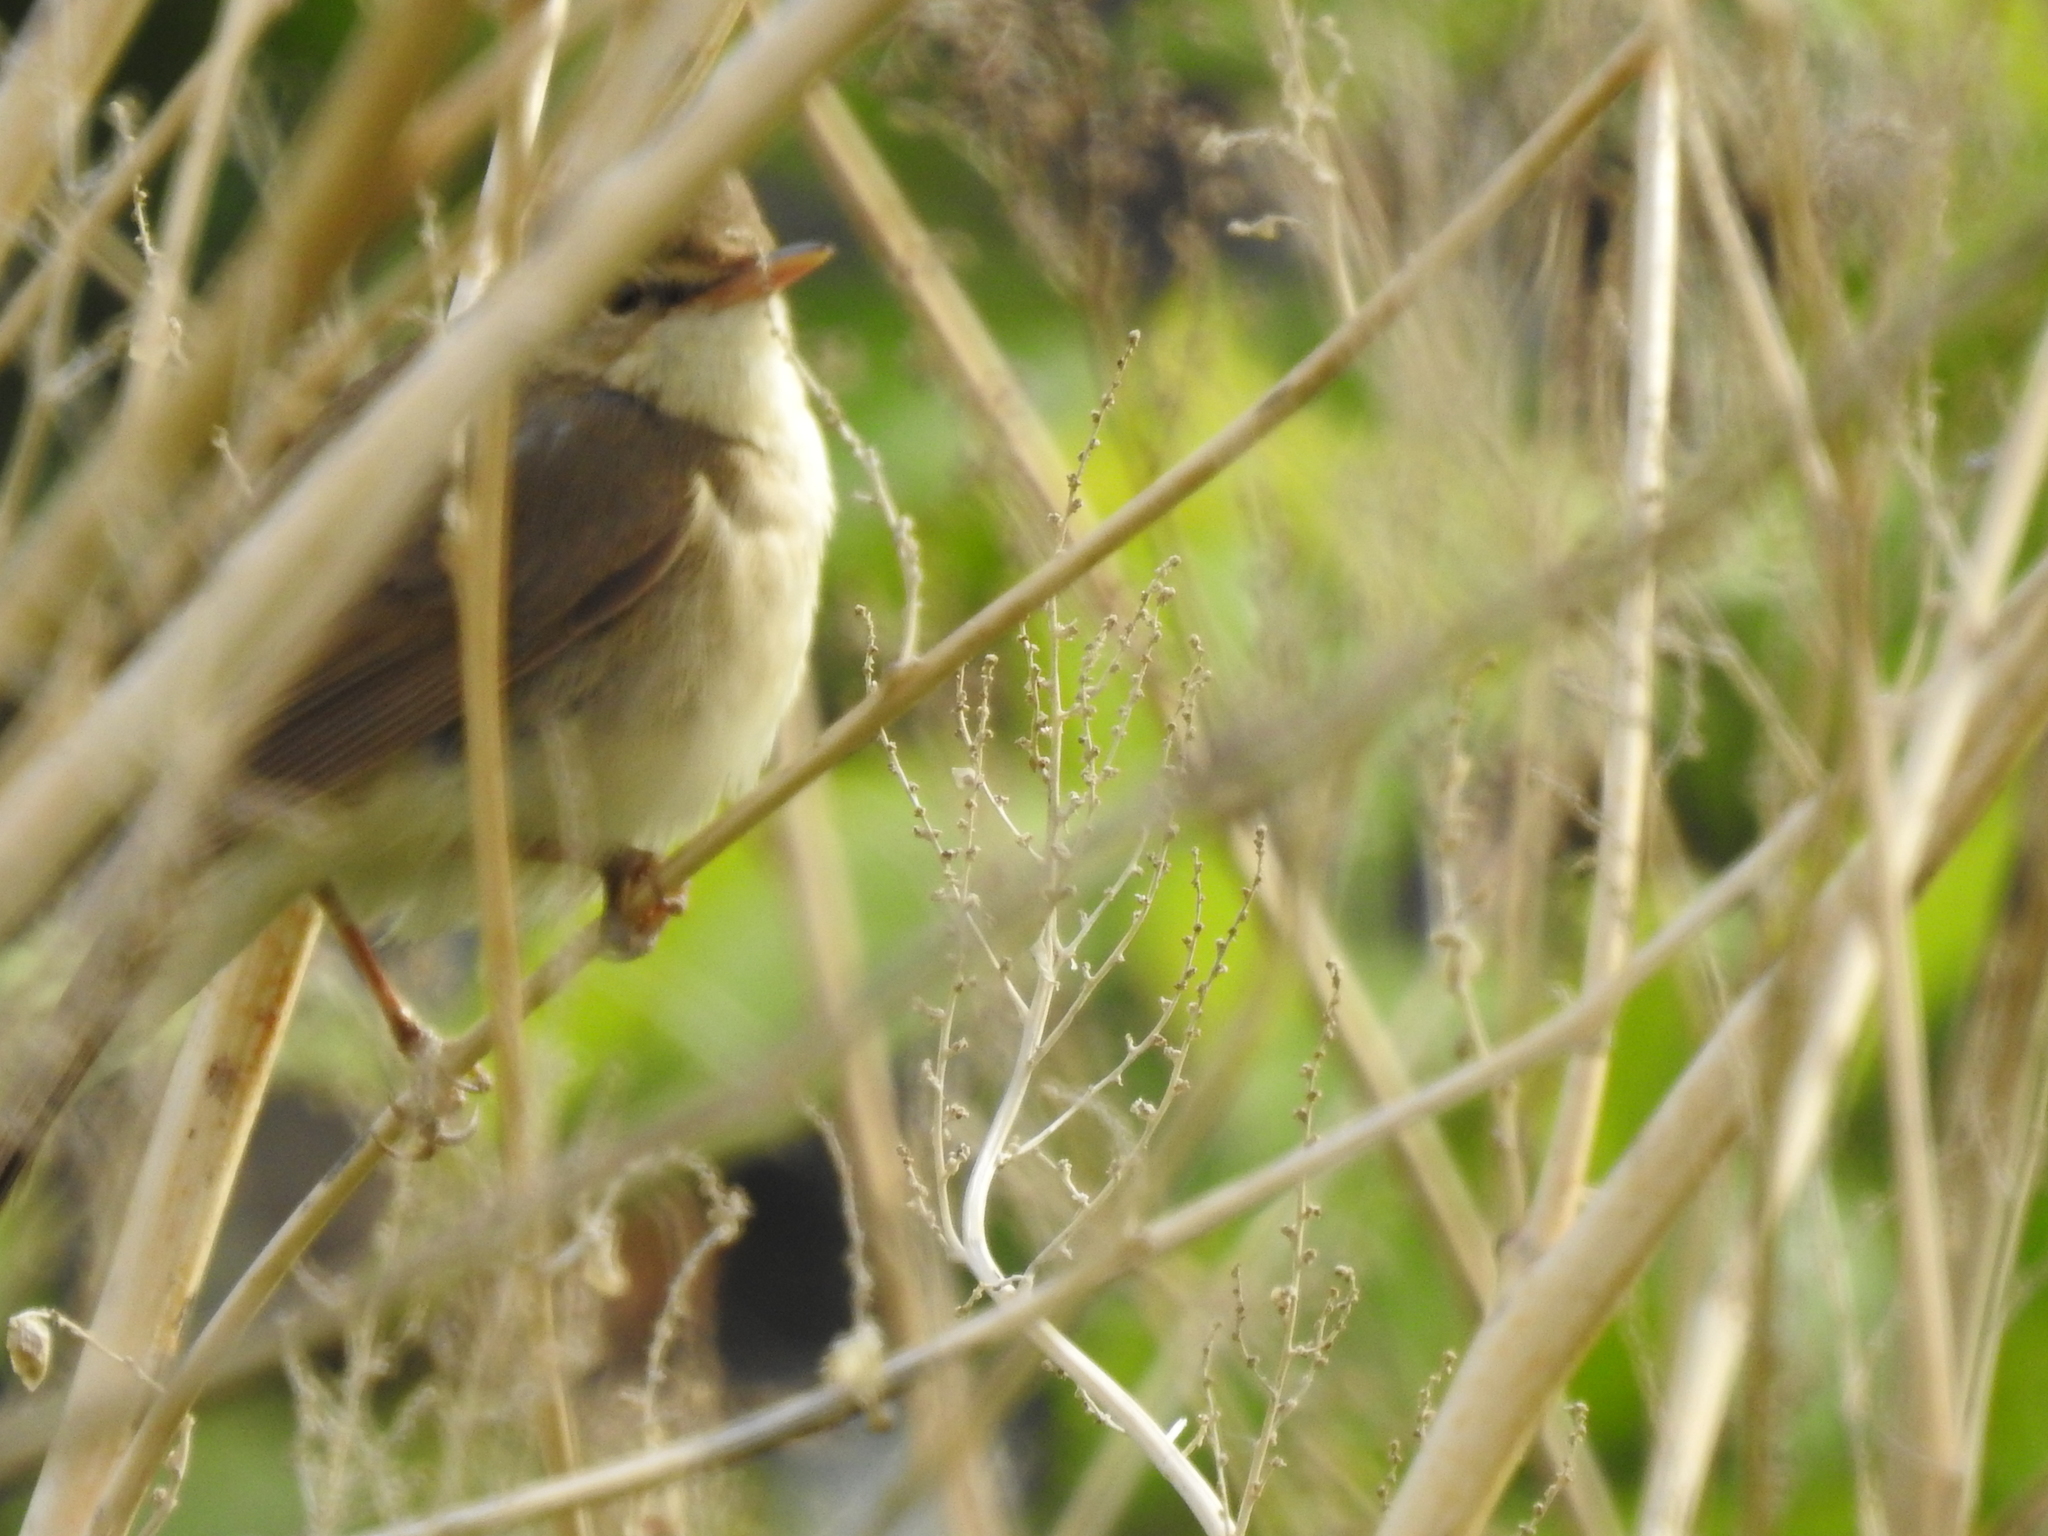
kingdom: Animalia
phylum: Chordata
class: Aves
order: Passeriformes
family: Acrocephalidae
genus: Acrocephalus
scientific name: Acrocephalus dumetorum
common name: Blyth's reed warbler
